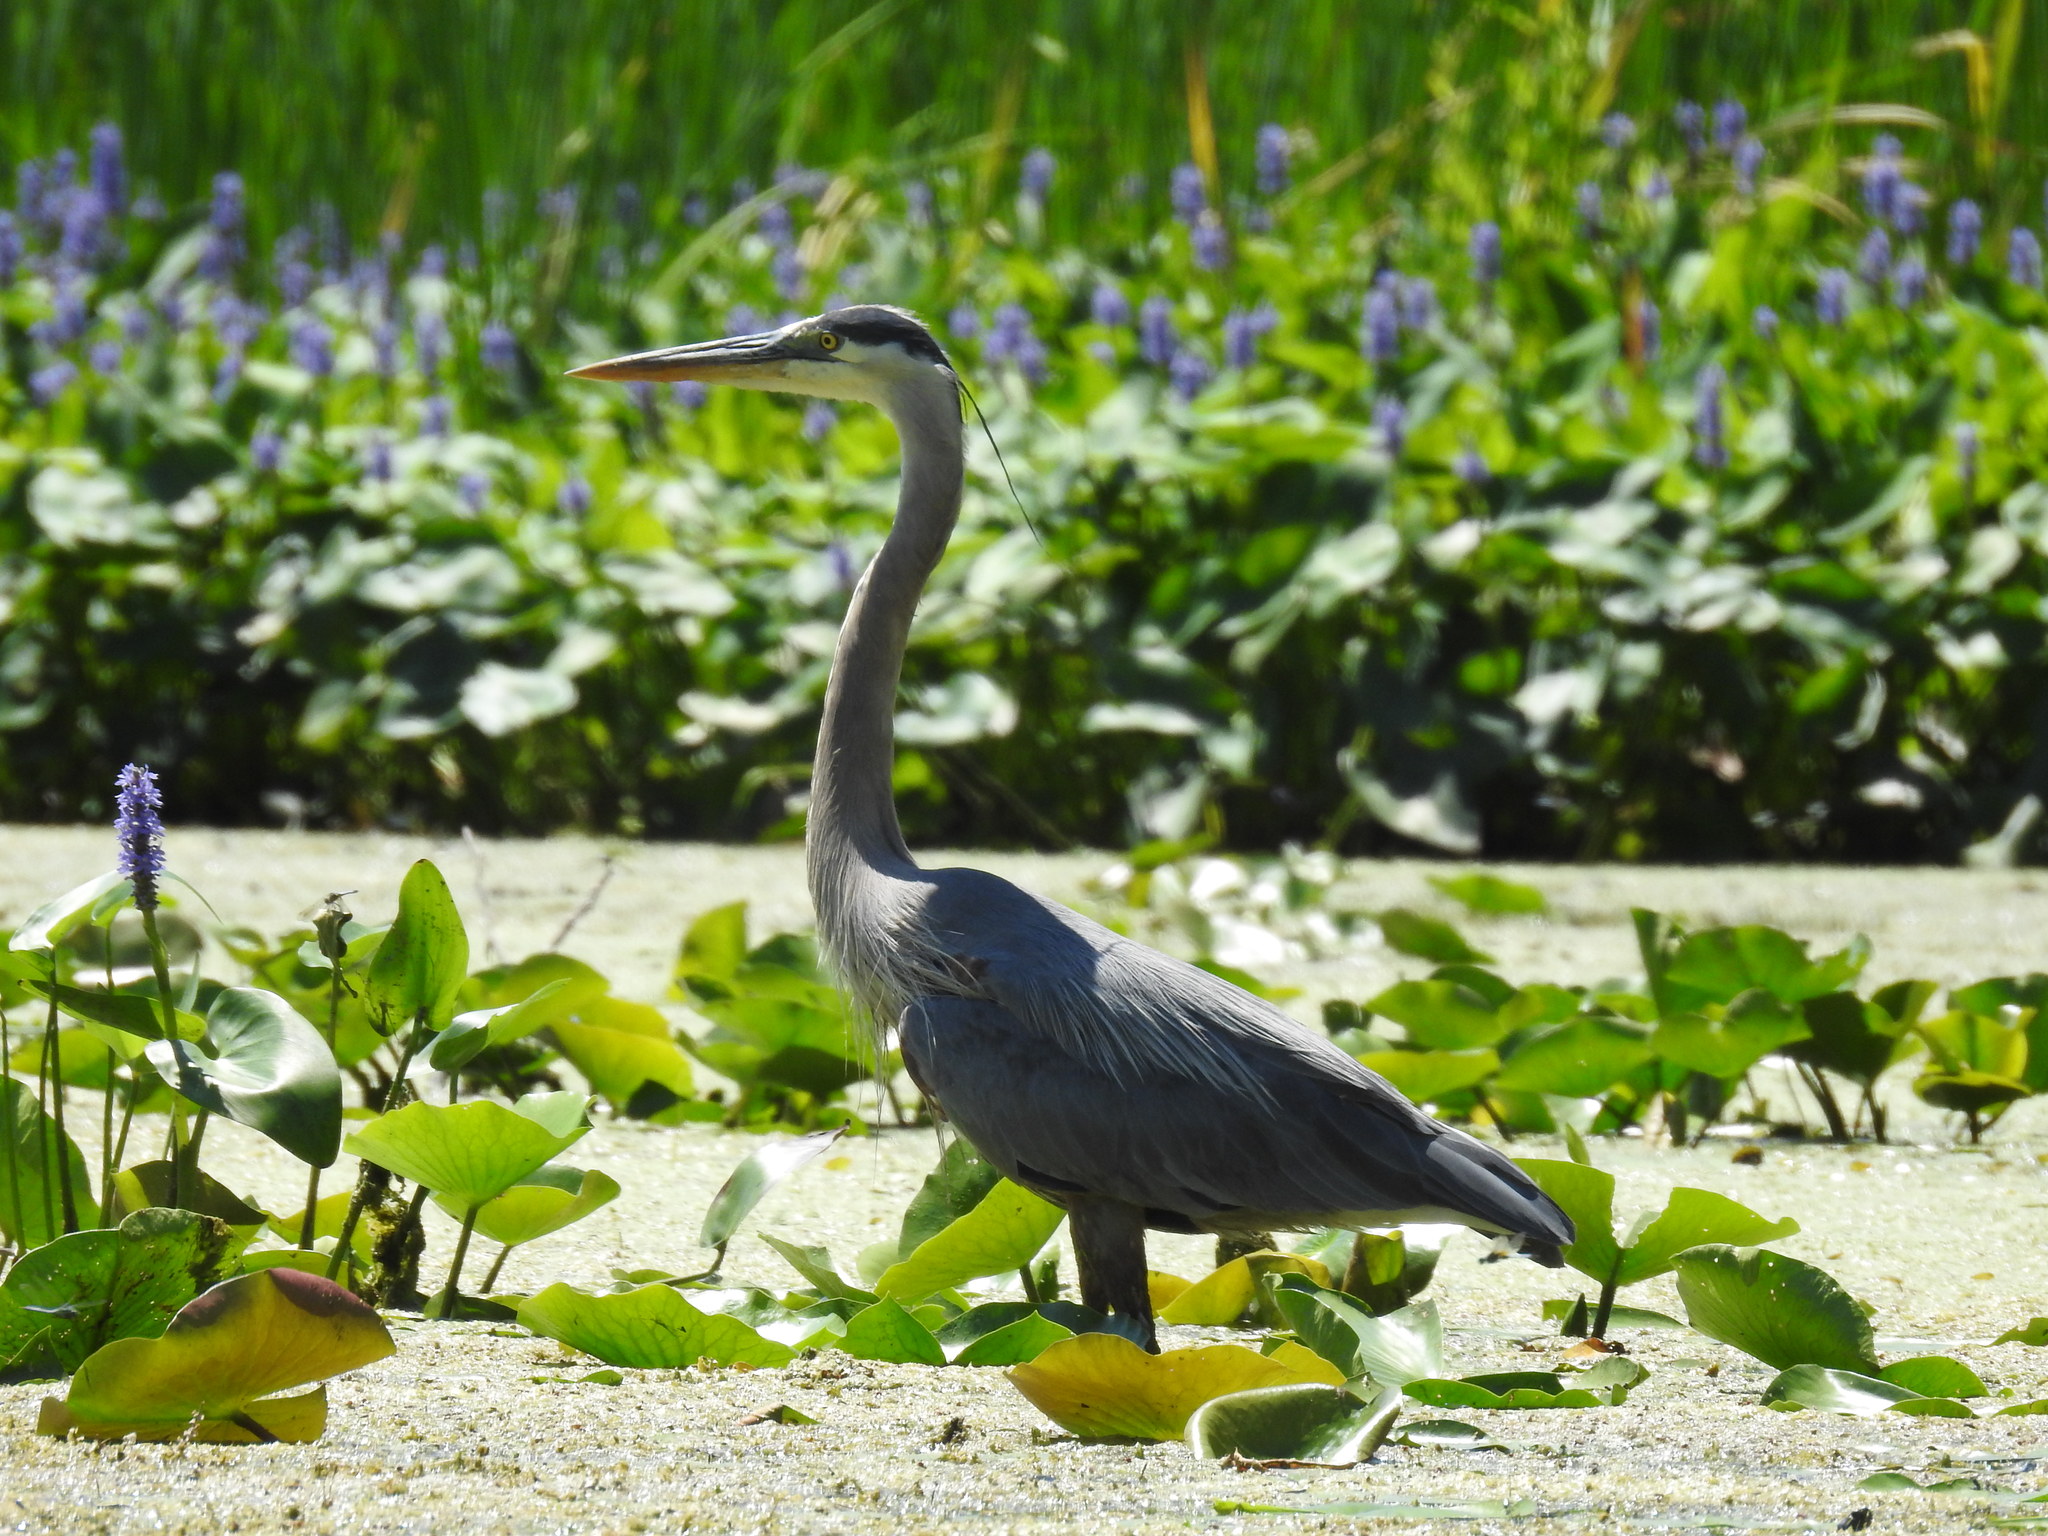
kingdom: Animalia
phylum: Chordata
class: Aves
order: Pelecaniformes
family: Ardeidae
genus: Ardea
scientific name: Ardea herodias
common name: Great blue heron
